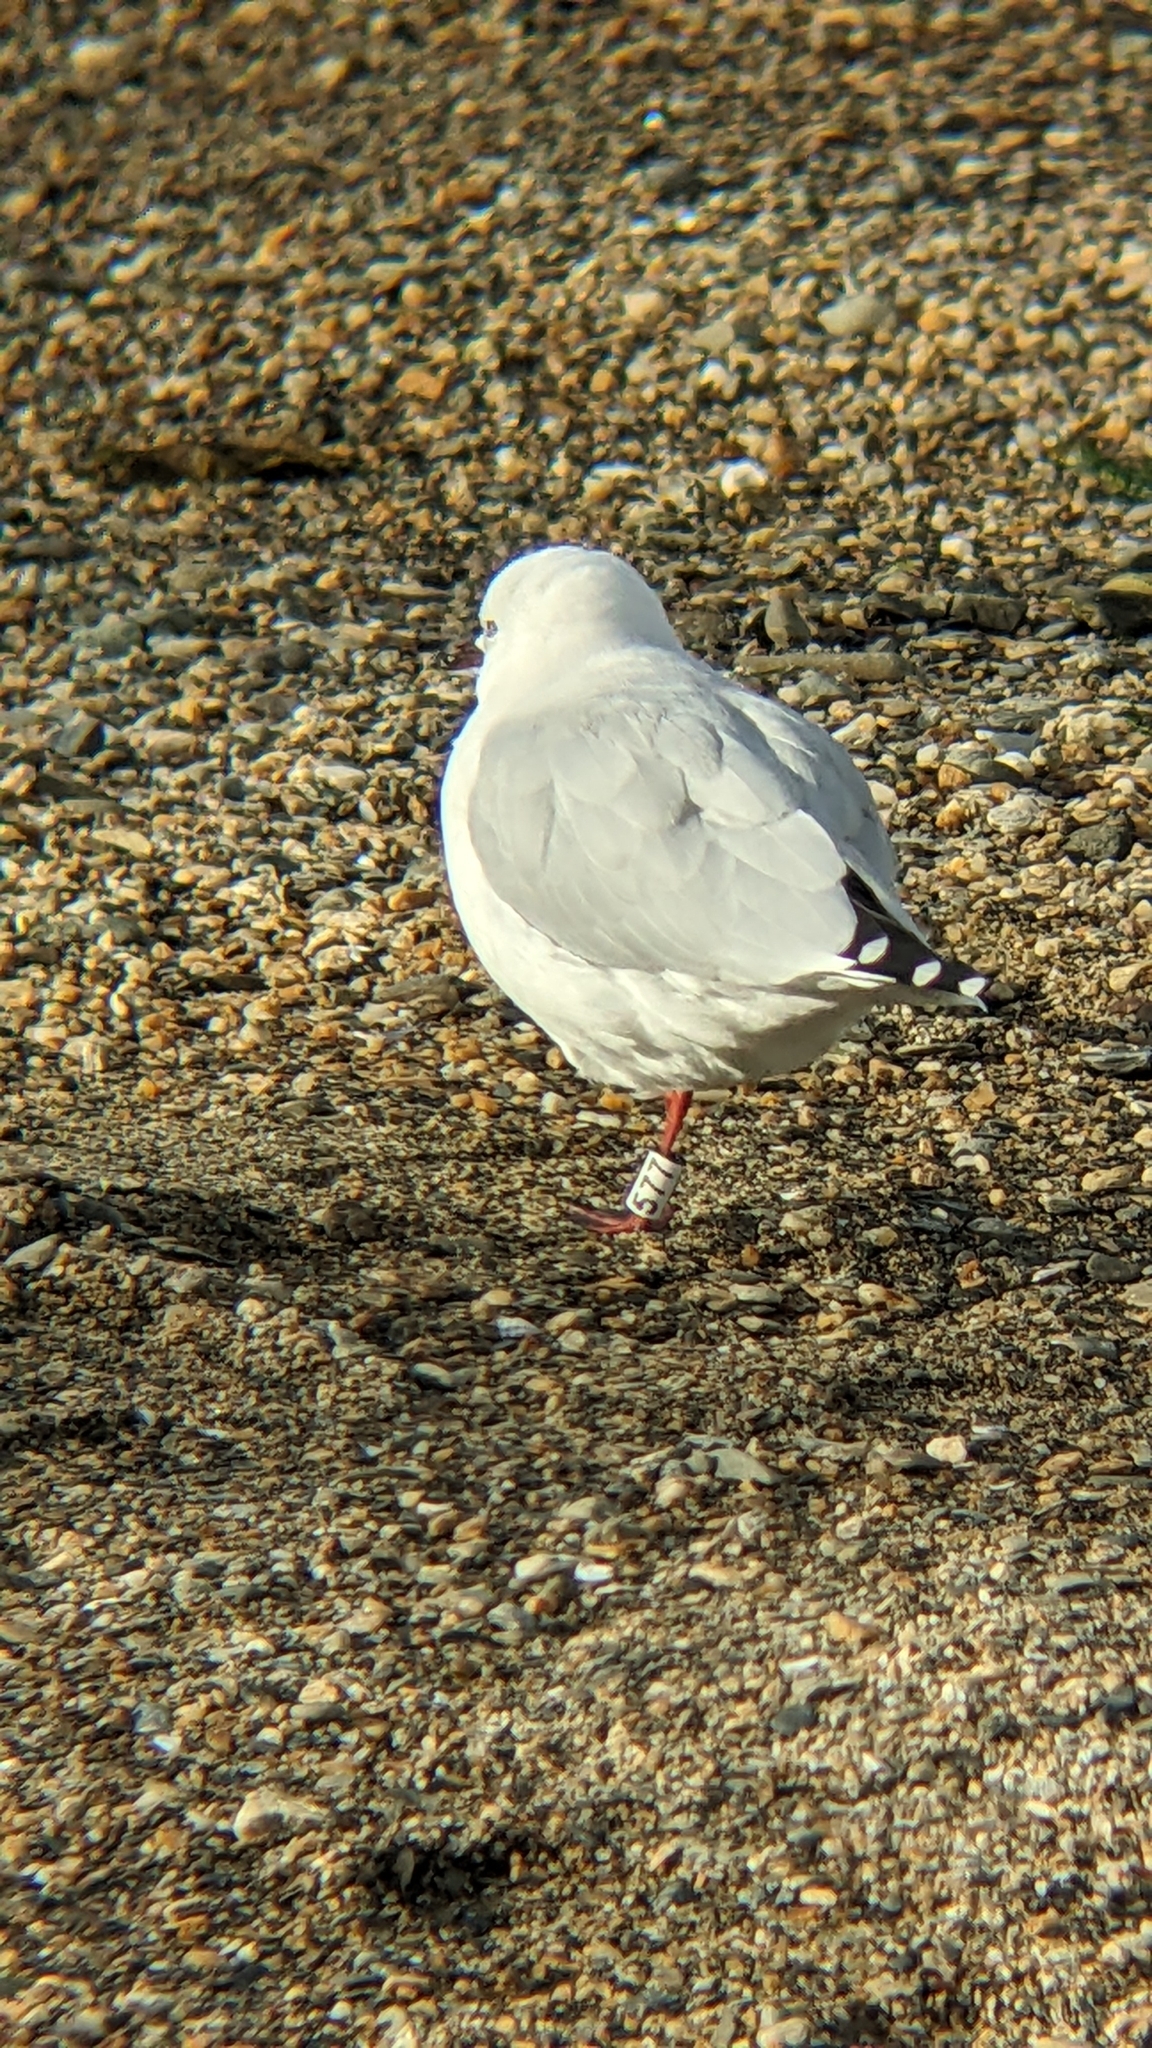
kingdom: Animalia
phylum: Chordata
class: Aves
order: Charadriiformes
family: Laridae
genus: Chroicocephalus
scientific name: Chroicocephalus bulleri
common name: Black-billed gull
